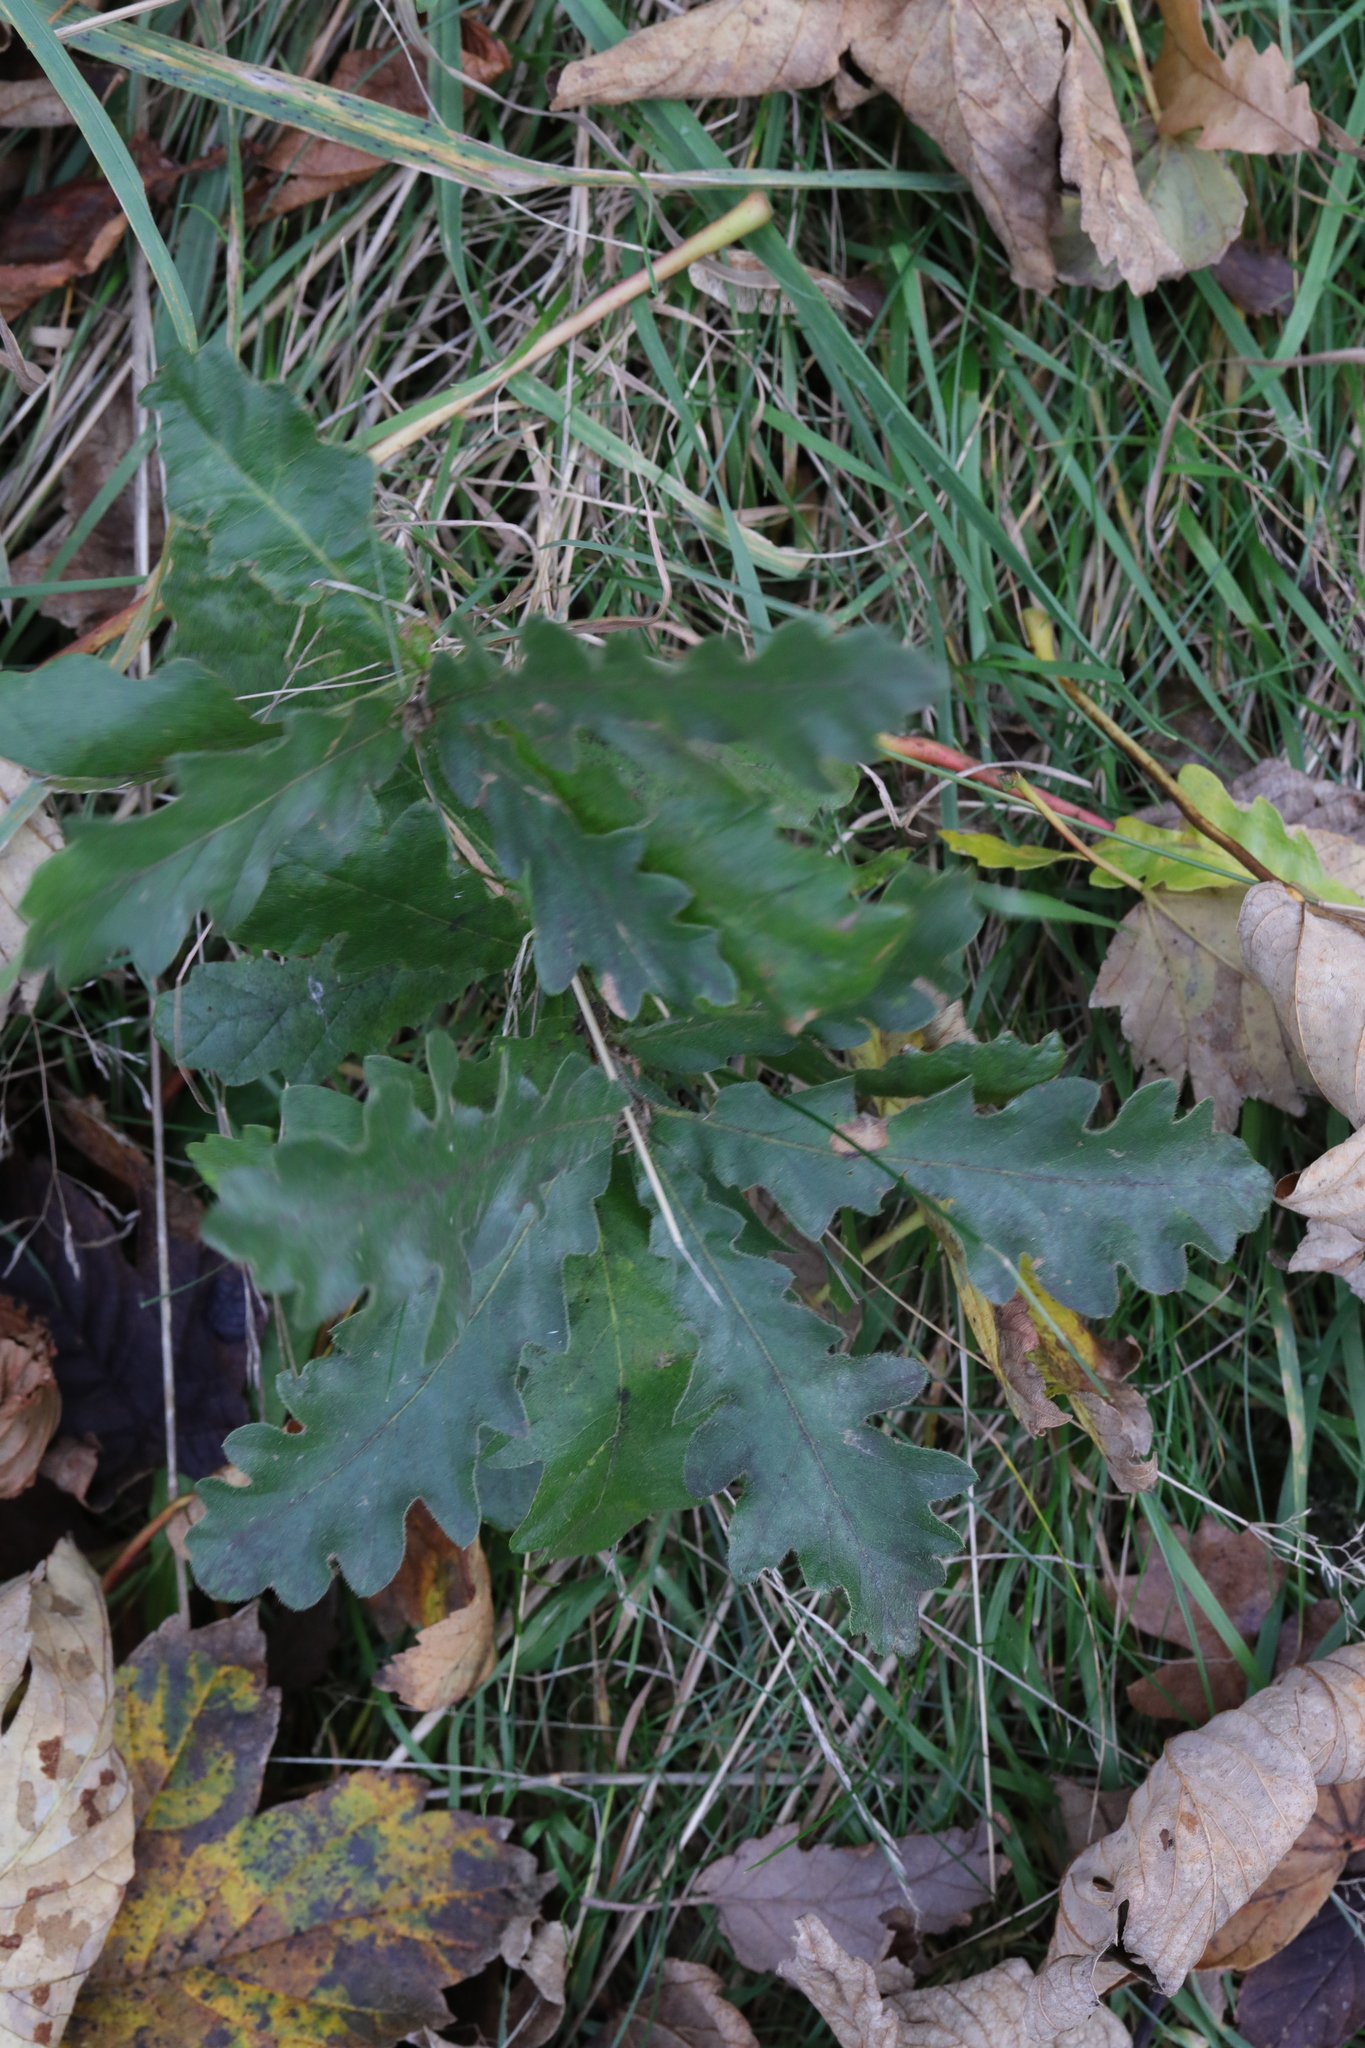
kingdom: Plantae
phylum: Tracheophyta
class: Magnoliopsida
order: Fagales
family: Fagaceae
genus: Quercus
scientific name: Quercus robur
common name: Pedunculate oak
